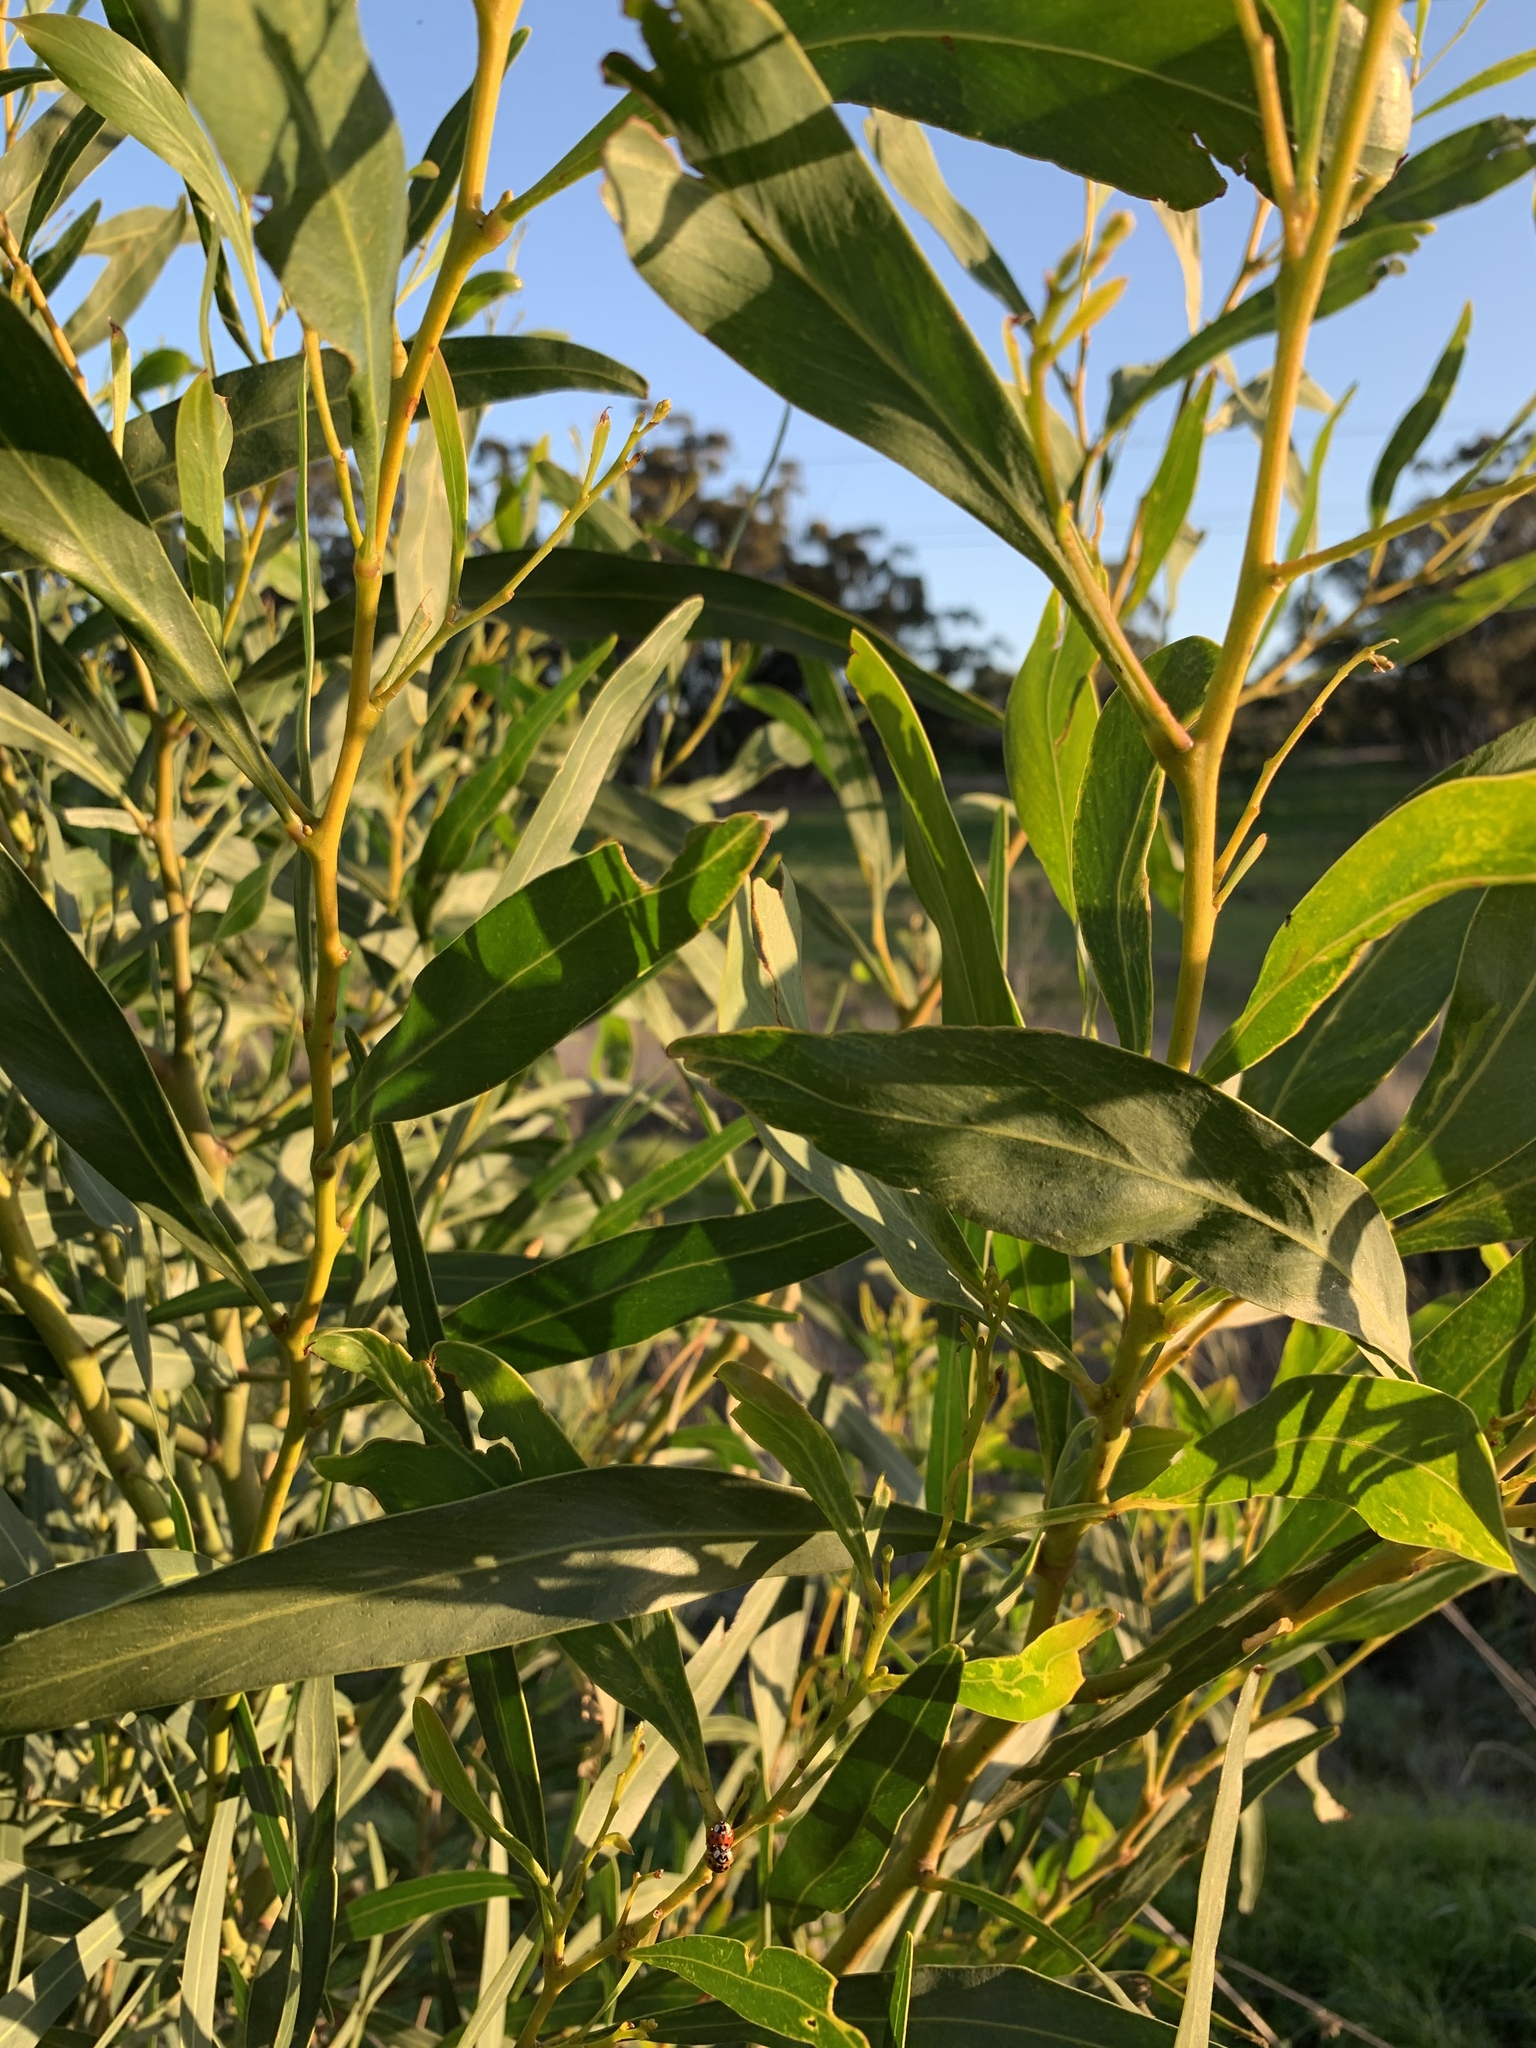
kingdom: Plantae
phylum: Tracheophyta
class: Magnoliopsida
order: Fabales
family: Fabaceae
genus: Acacia
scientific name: Acacia saligna
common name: Orange wattle
